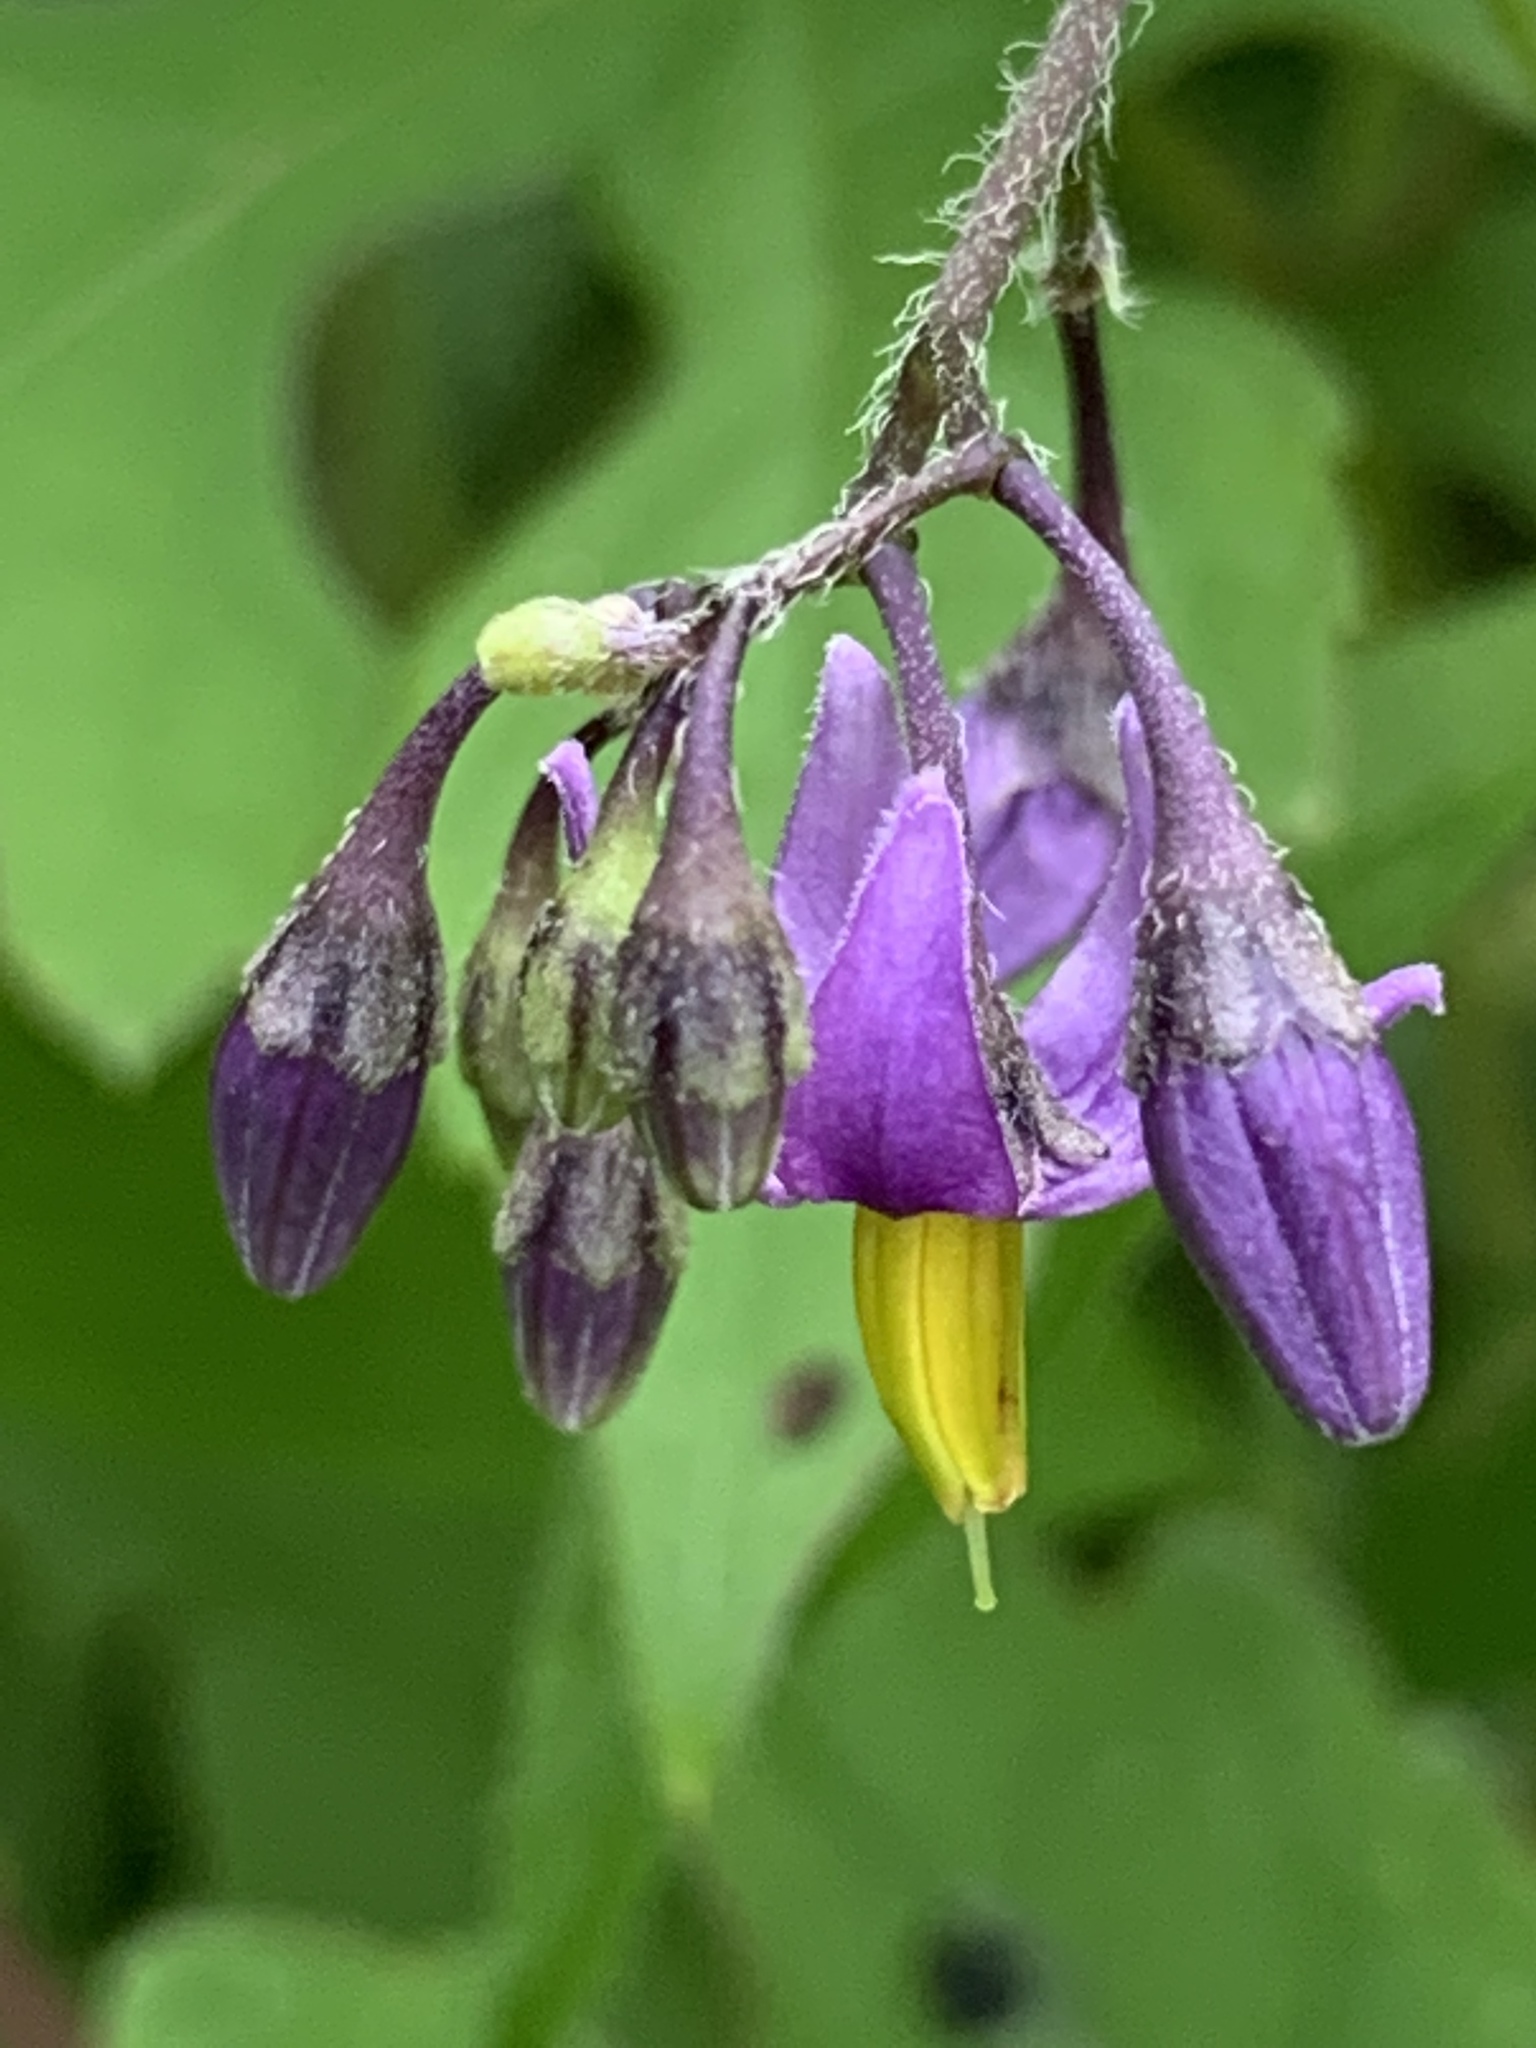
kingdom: Plantae
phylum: Tracheophyta
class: Magnoliopsida
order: Solanales
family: Solanaceae
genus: Solanum
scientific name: Solanum dulcamara
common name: Climbing nightshade
